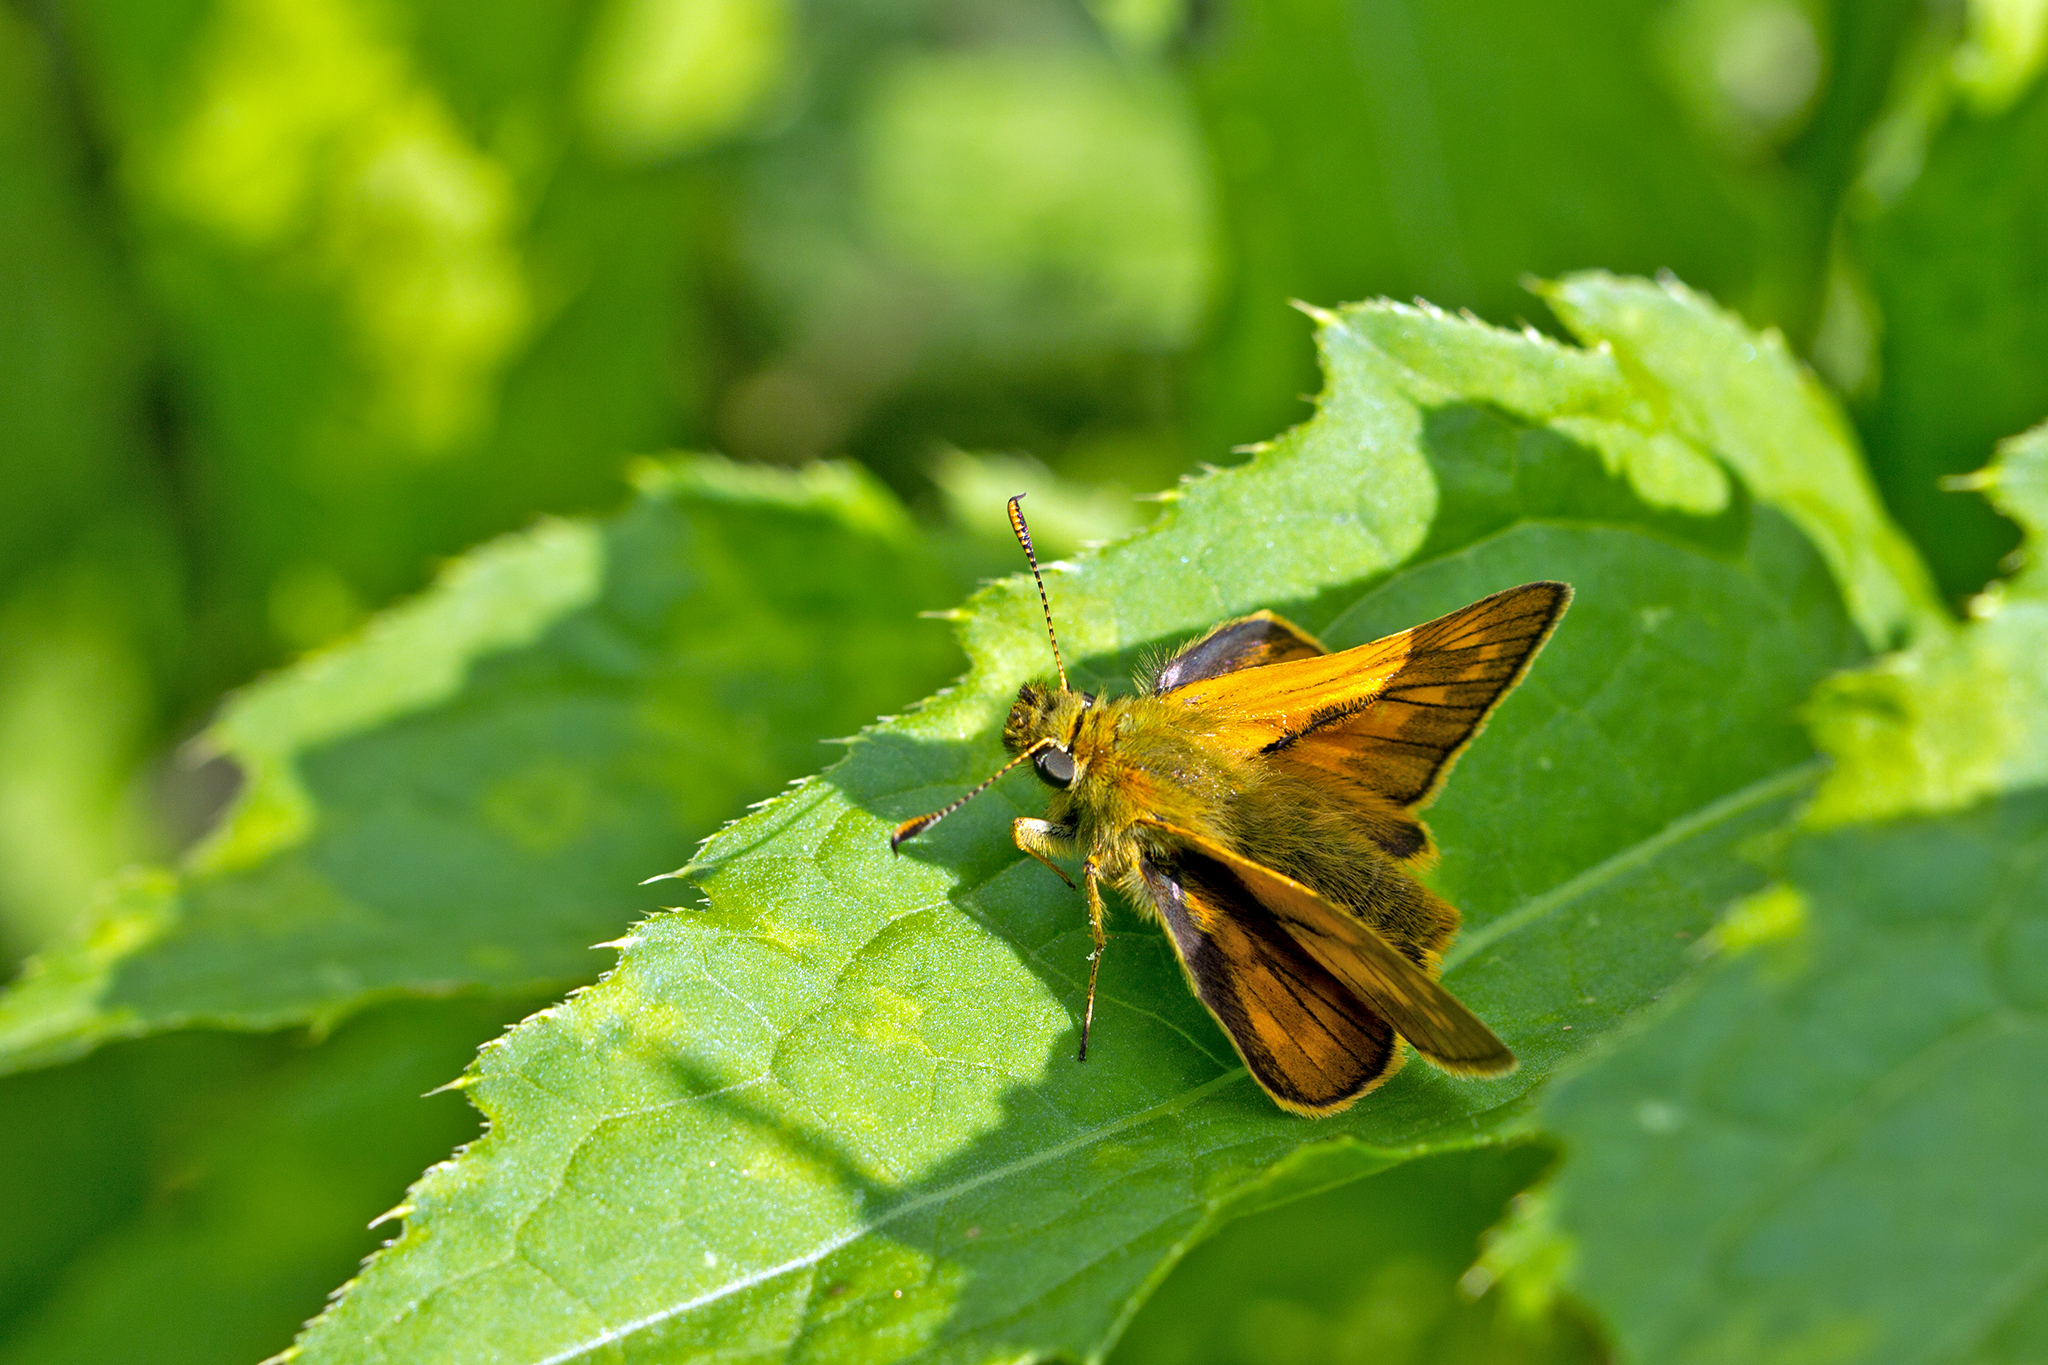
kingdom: Animalia
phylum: Arthropoda
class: Insecta
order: Lepidoptera
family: Hesperiidae
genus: Ochlodes
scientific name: Ochlodes venata
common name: Large skipper
